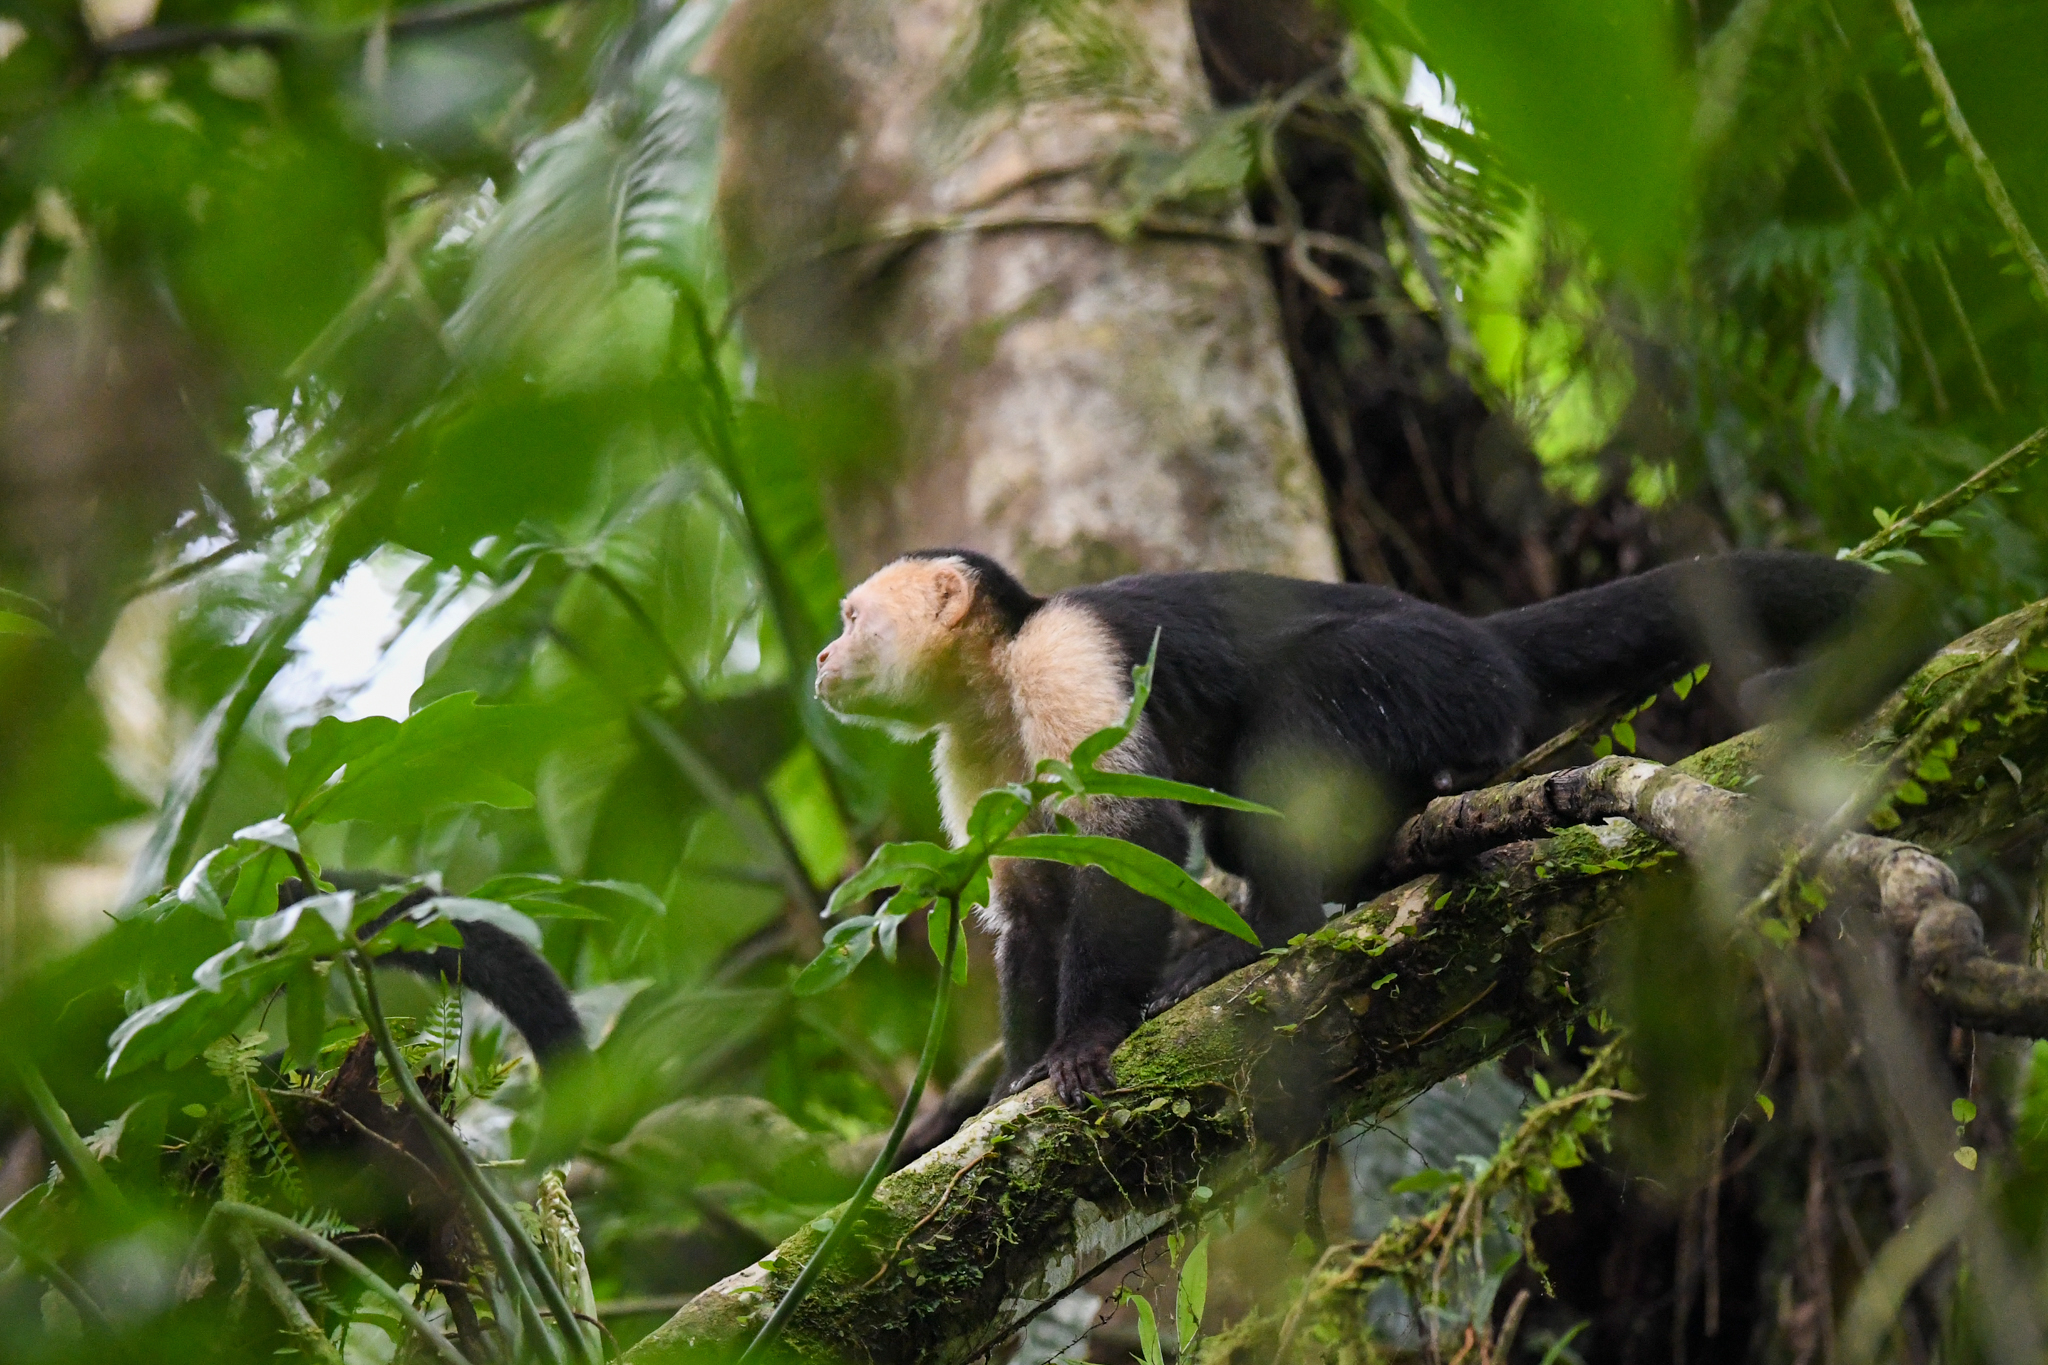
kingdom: Animalia
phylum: Chordata
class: Mammalia
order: Primates
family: Cebidae
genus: Cebus
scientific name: Cebus imitator
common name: Panamanian white-faced capuchin
